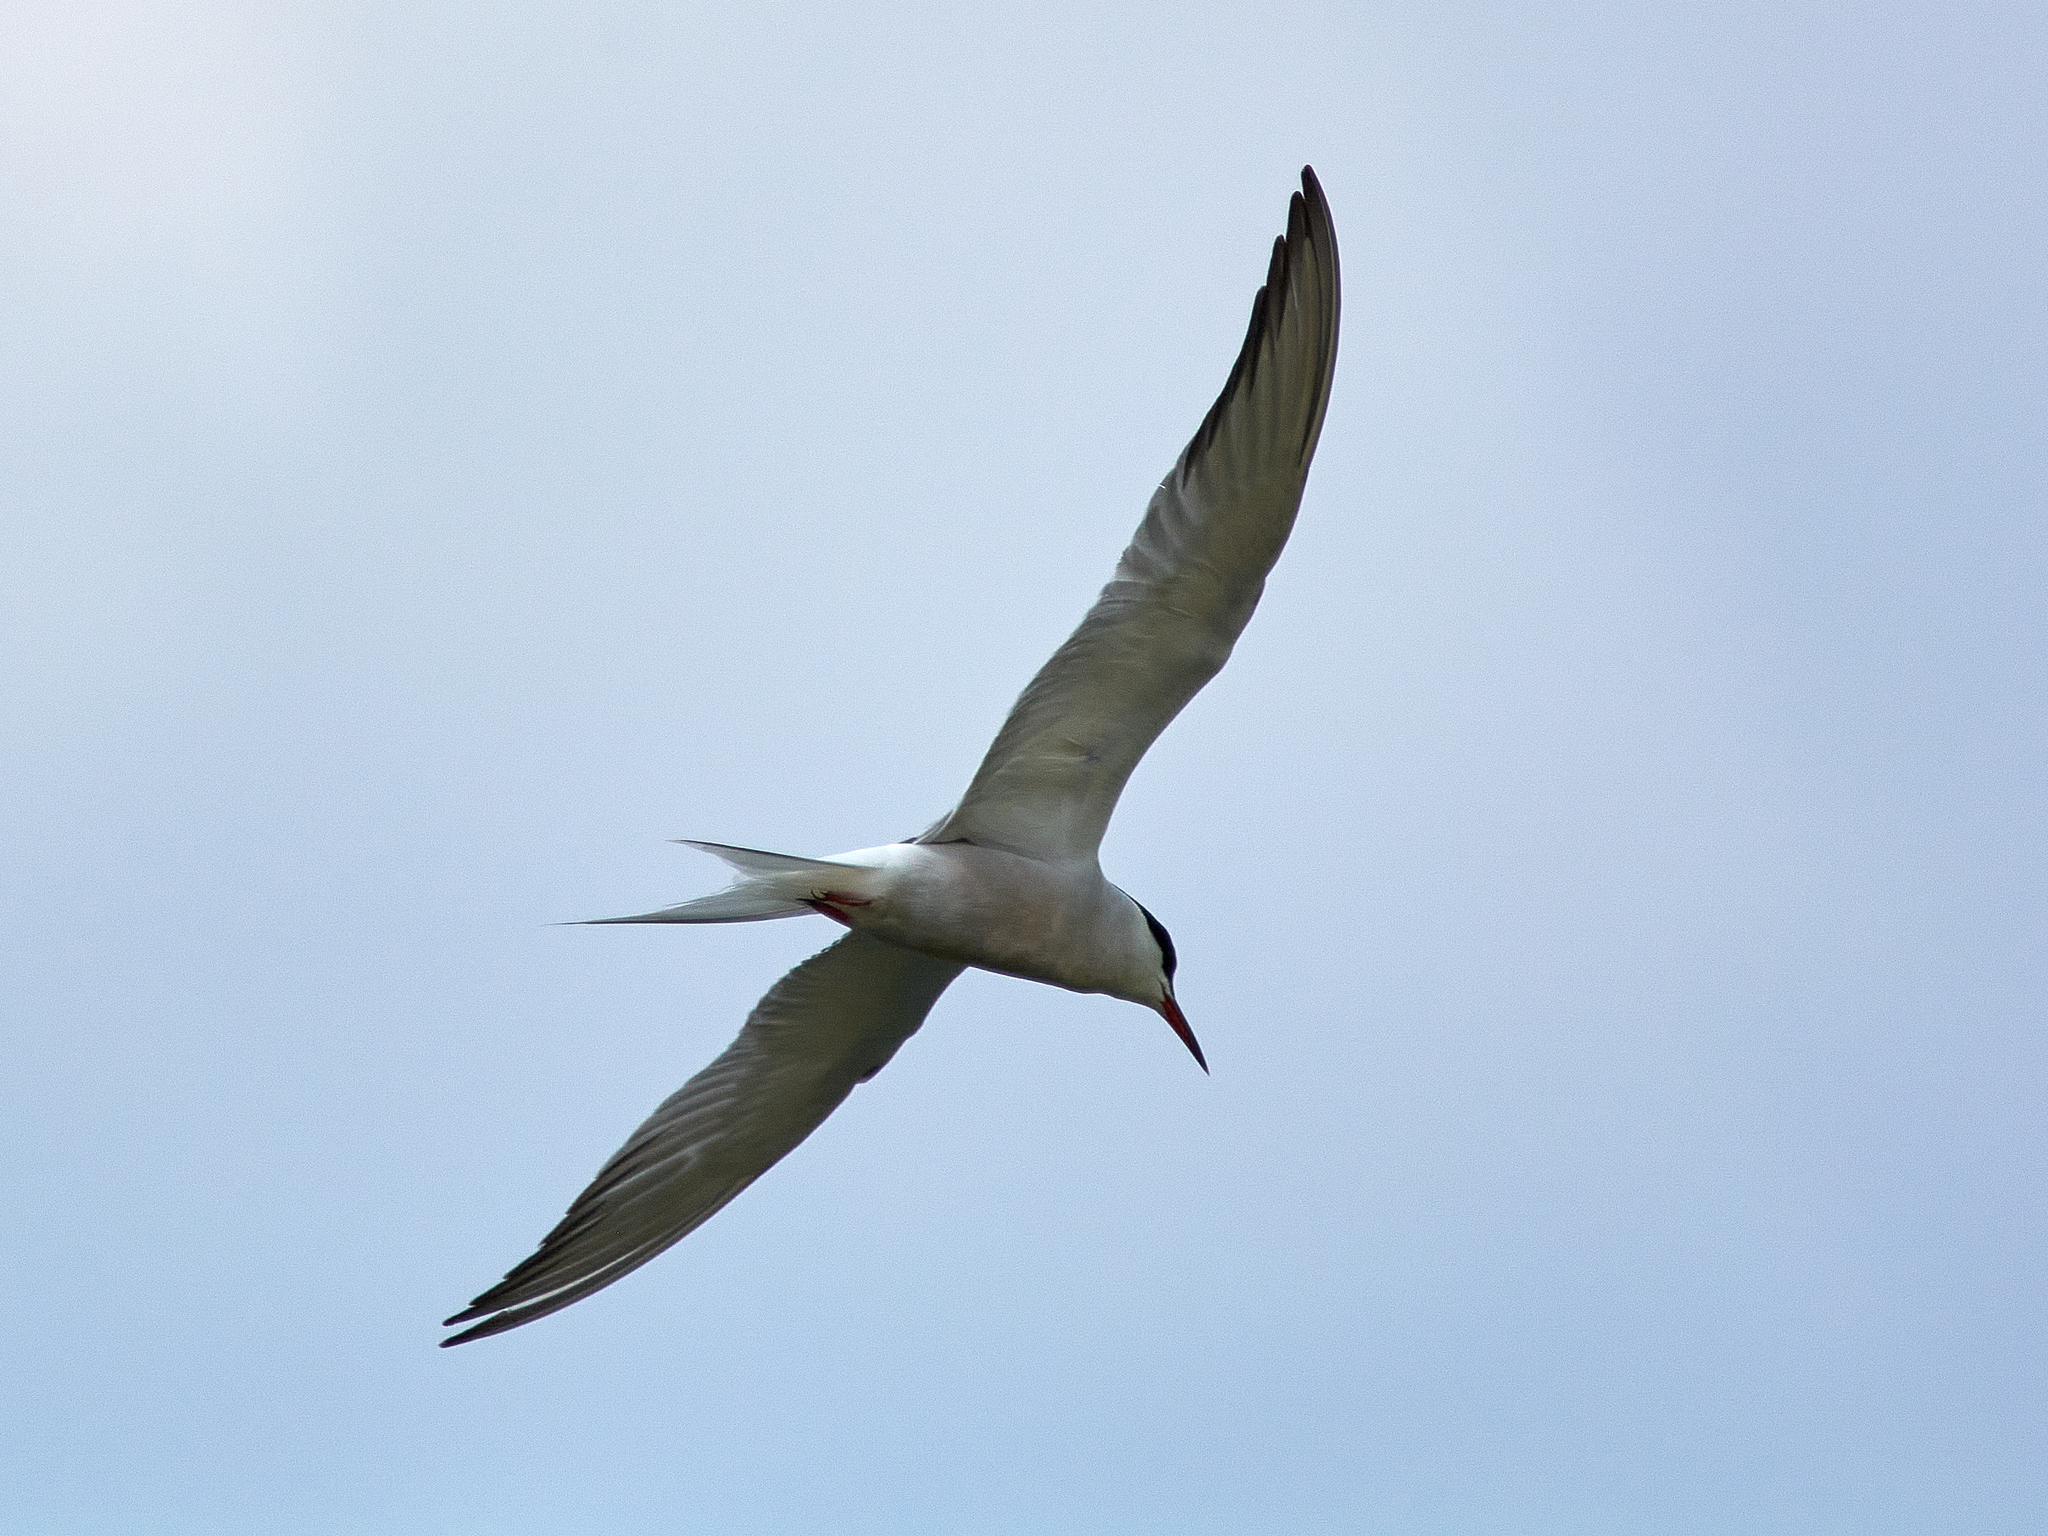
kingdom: Animalia
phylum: Chordata
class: Aves
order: Charadriiformes
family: Laridae
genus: Sterna
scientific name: Sterna hirundo
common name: Common tern
